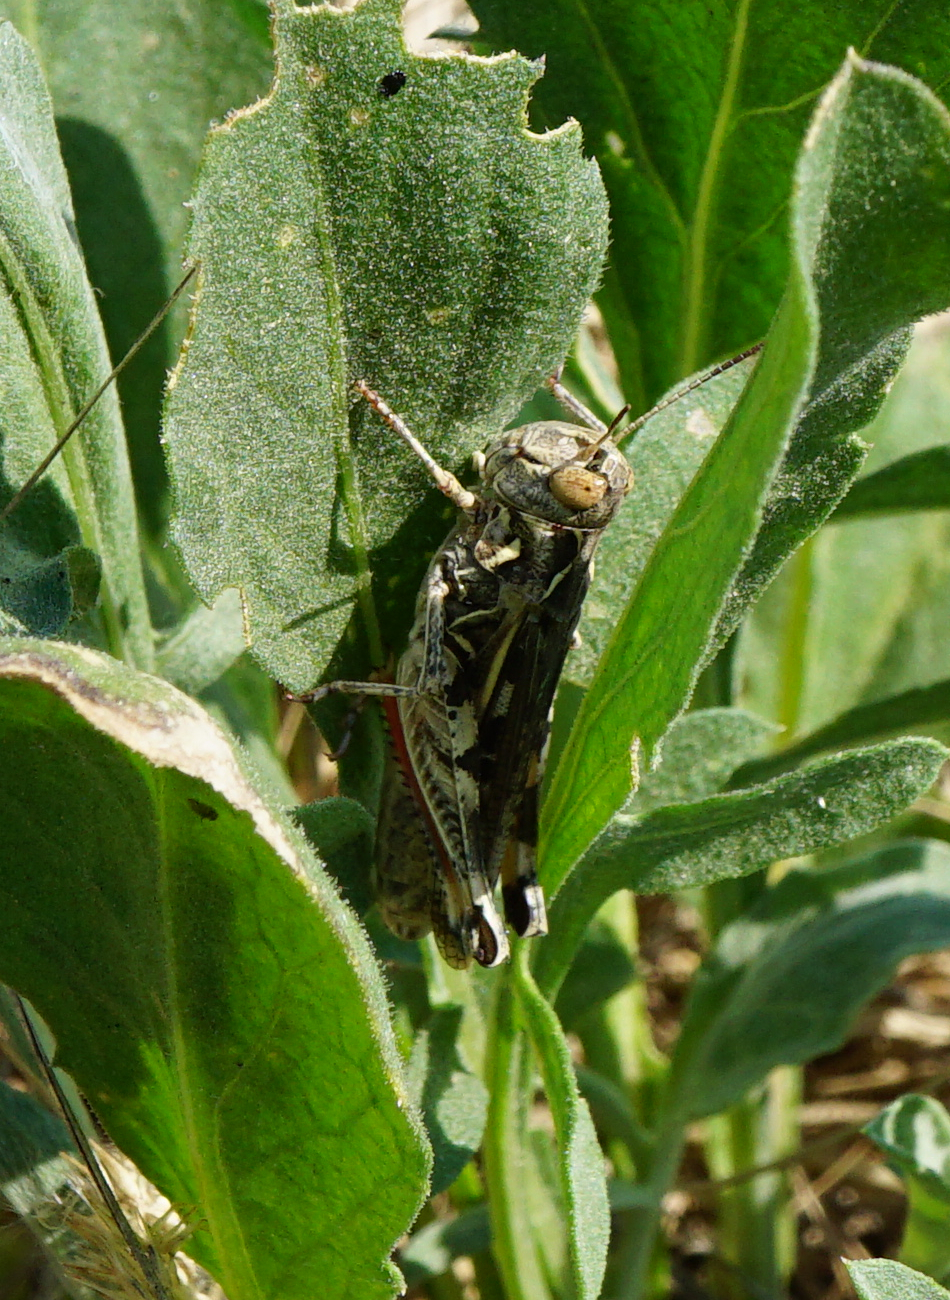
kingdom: Animalia
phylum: Arthropoda
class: Insecta
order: Orthoptera
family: Acrididae
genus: Dociostaurus
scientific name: Dociostaurus brevicollis
